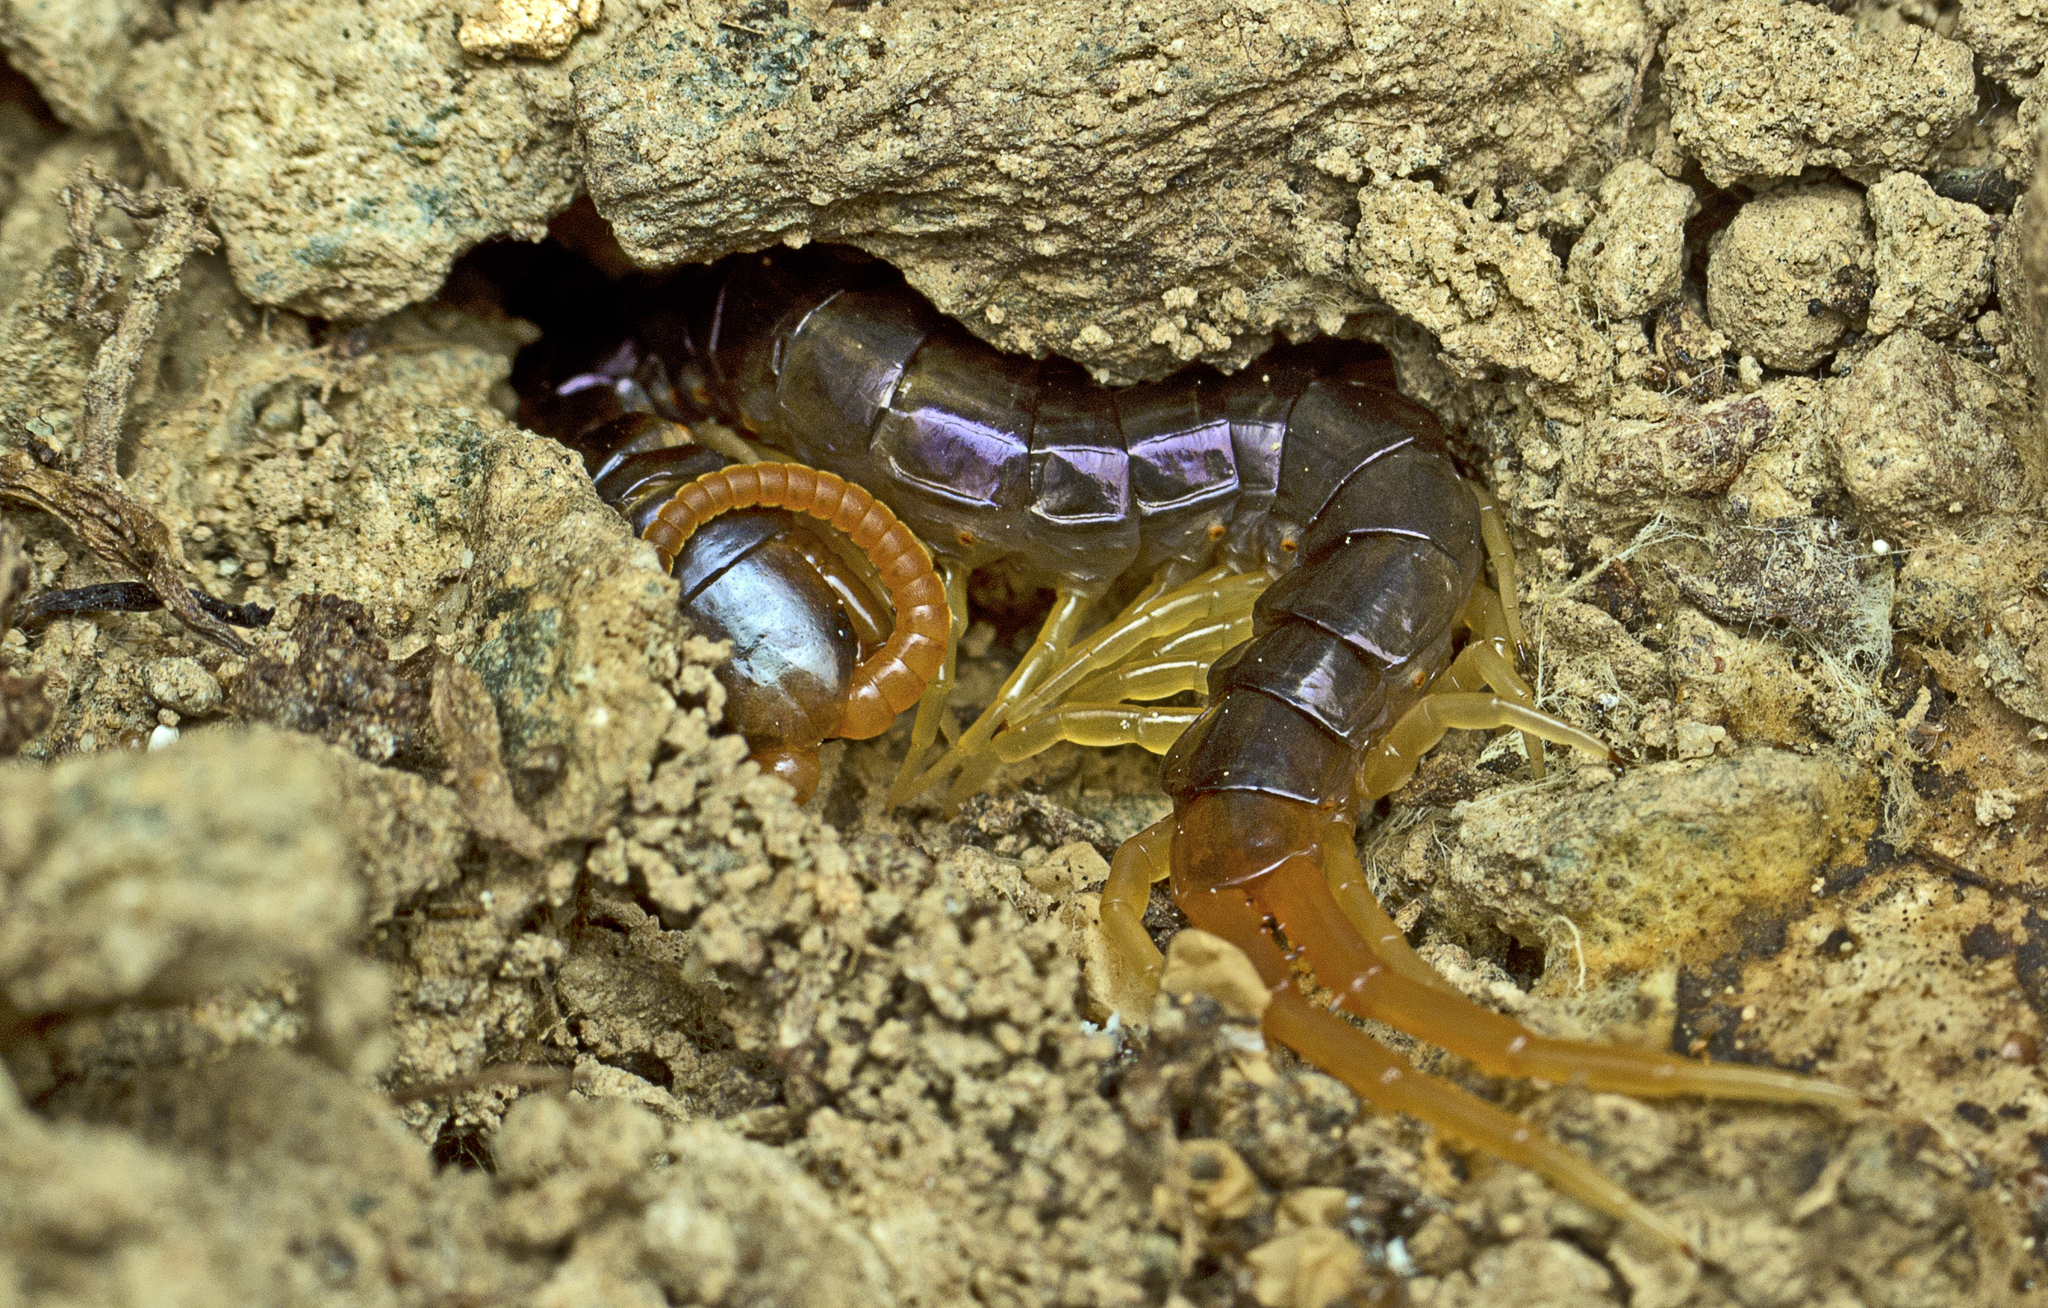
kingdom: Animalia
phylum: Arthropoda
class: Chilopoda
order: Scolopendromorpha
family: Scolopendridae
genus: Ethmostigmus
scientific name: Ethmostigmus rubripes
